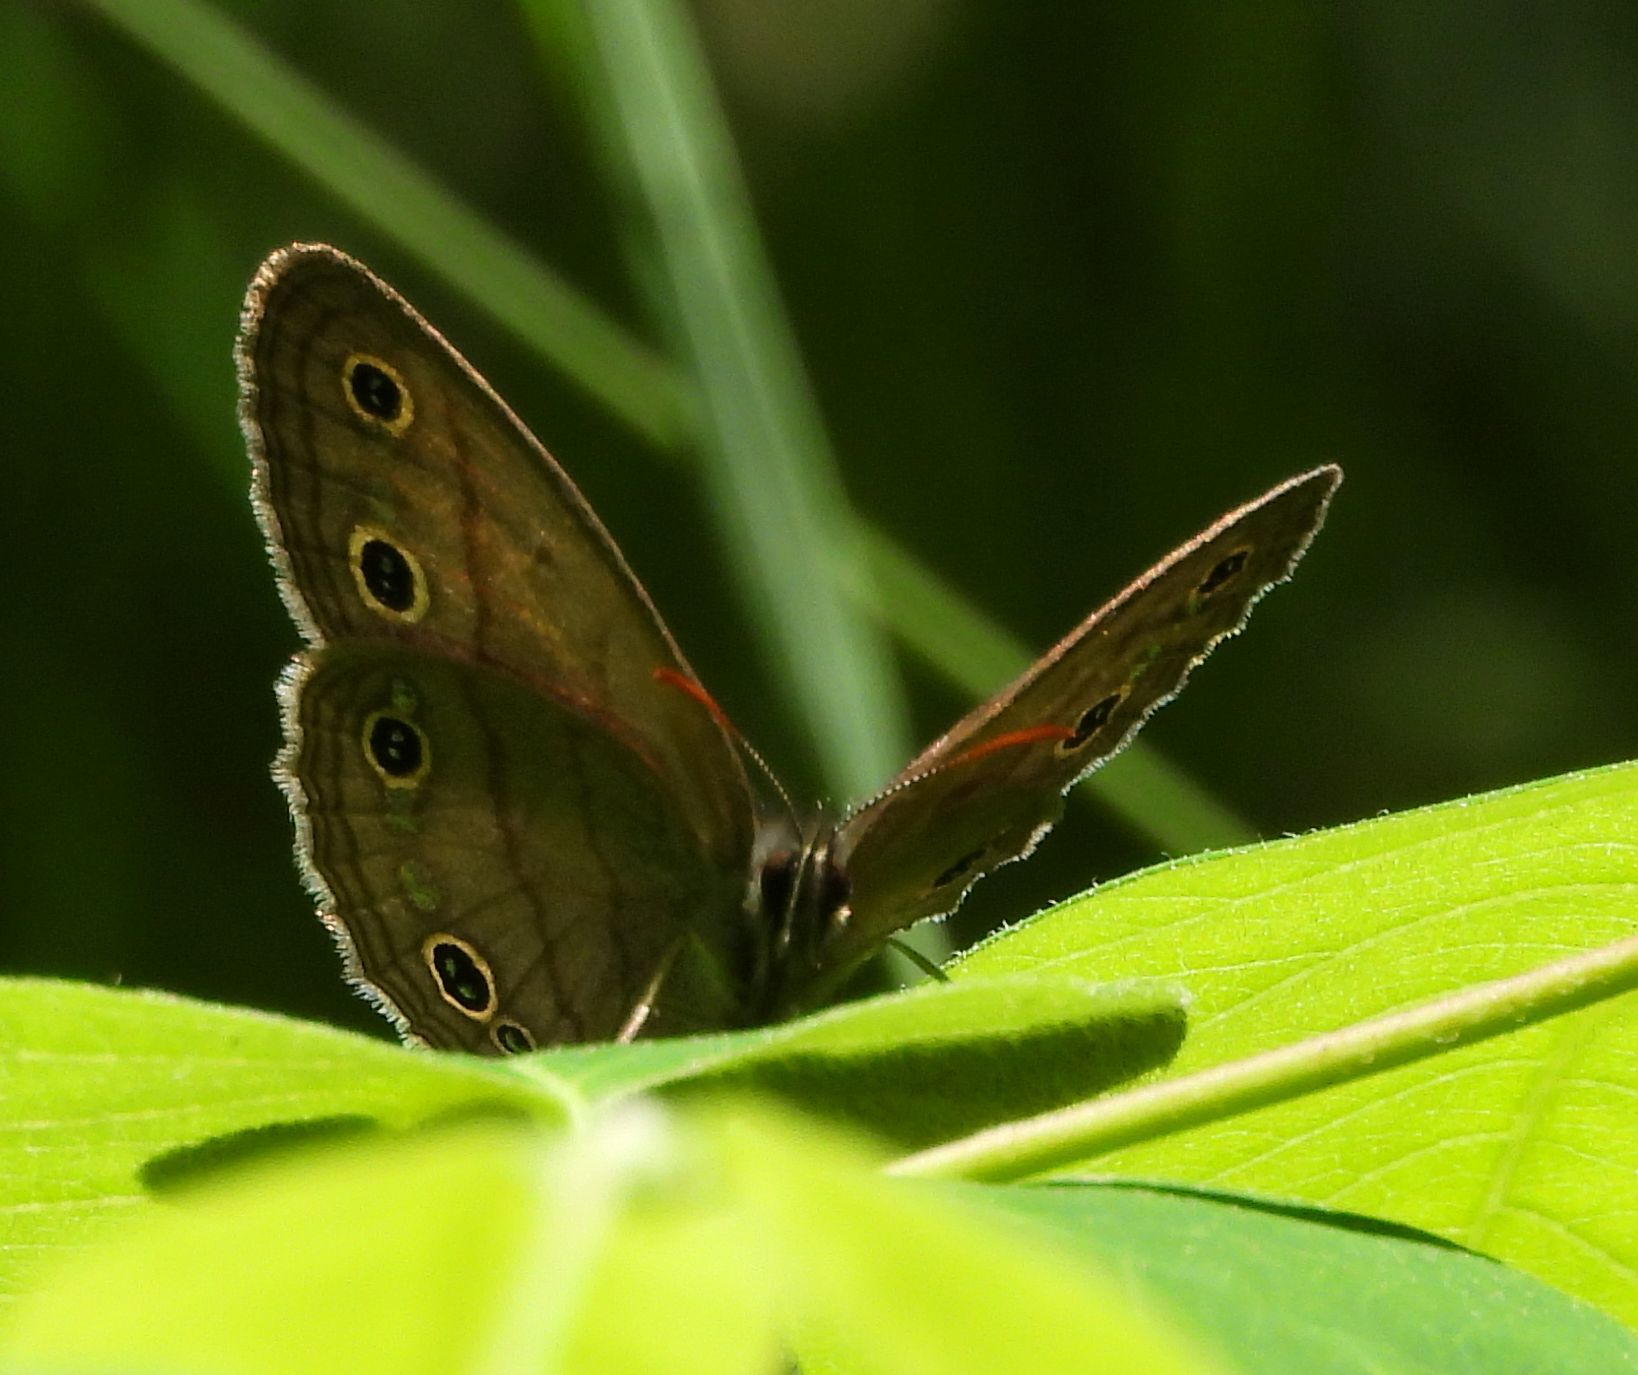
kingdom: Animalia
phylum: Arthropoda
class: Insecta
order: Lepidoptera
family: Nymphalidae
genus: Euptychia
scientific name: Euptychia cymela
